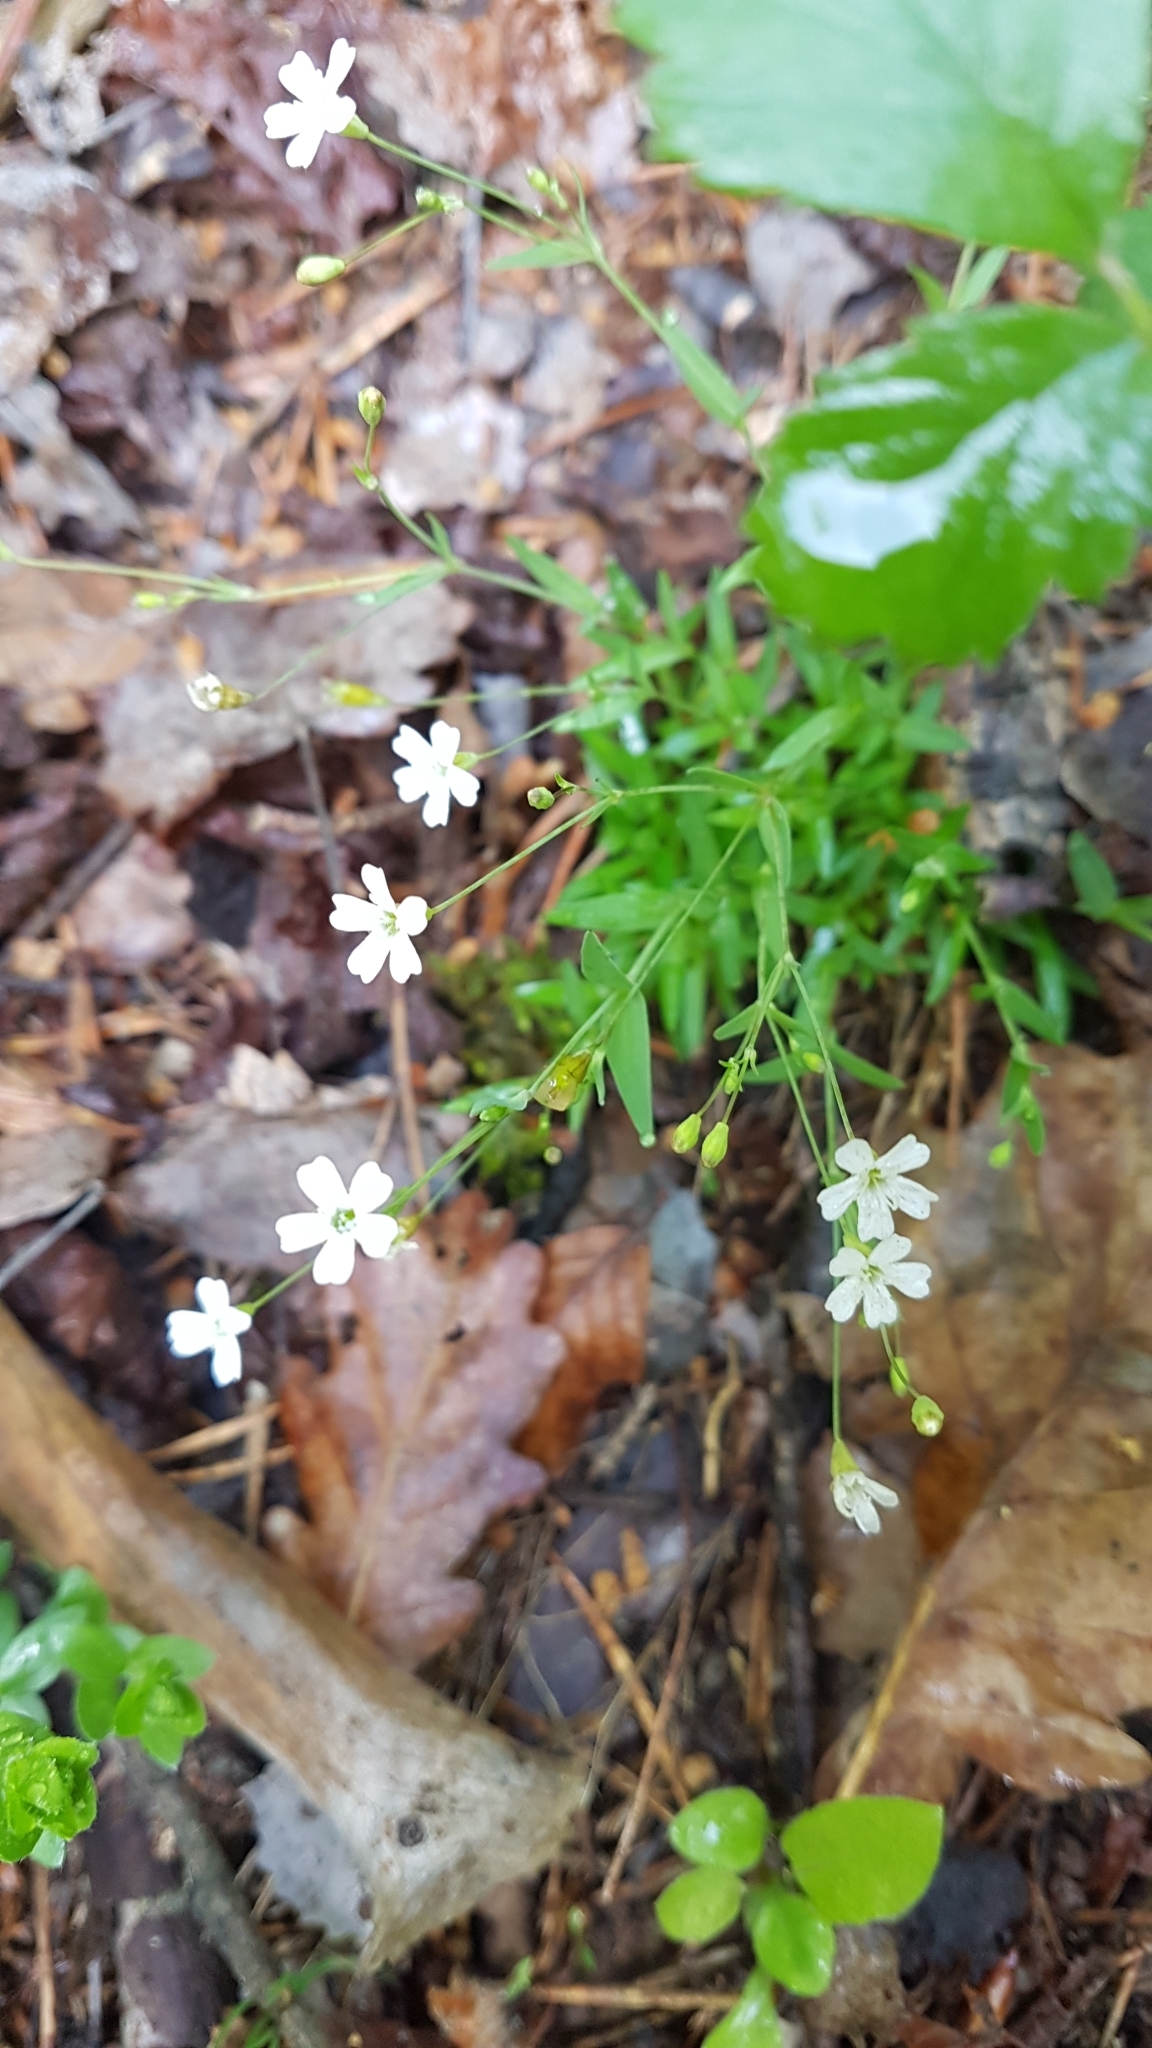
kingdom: Plantae
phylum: Tracheophyta
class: Magnoliopsida
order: Caryophyllales
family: Caryophyllaceae
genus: Atocion
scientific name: Atocion rupestre
